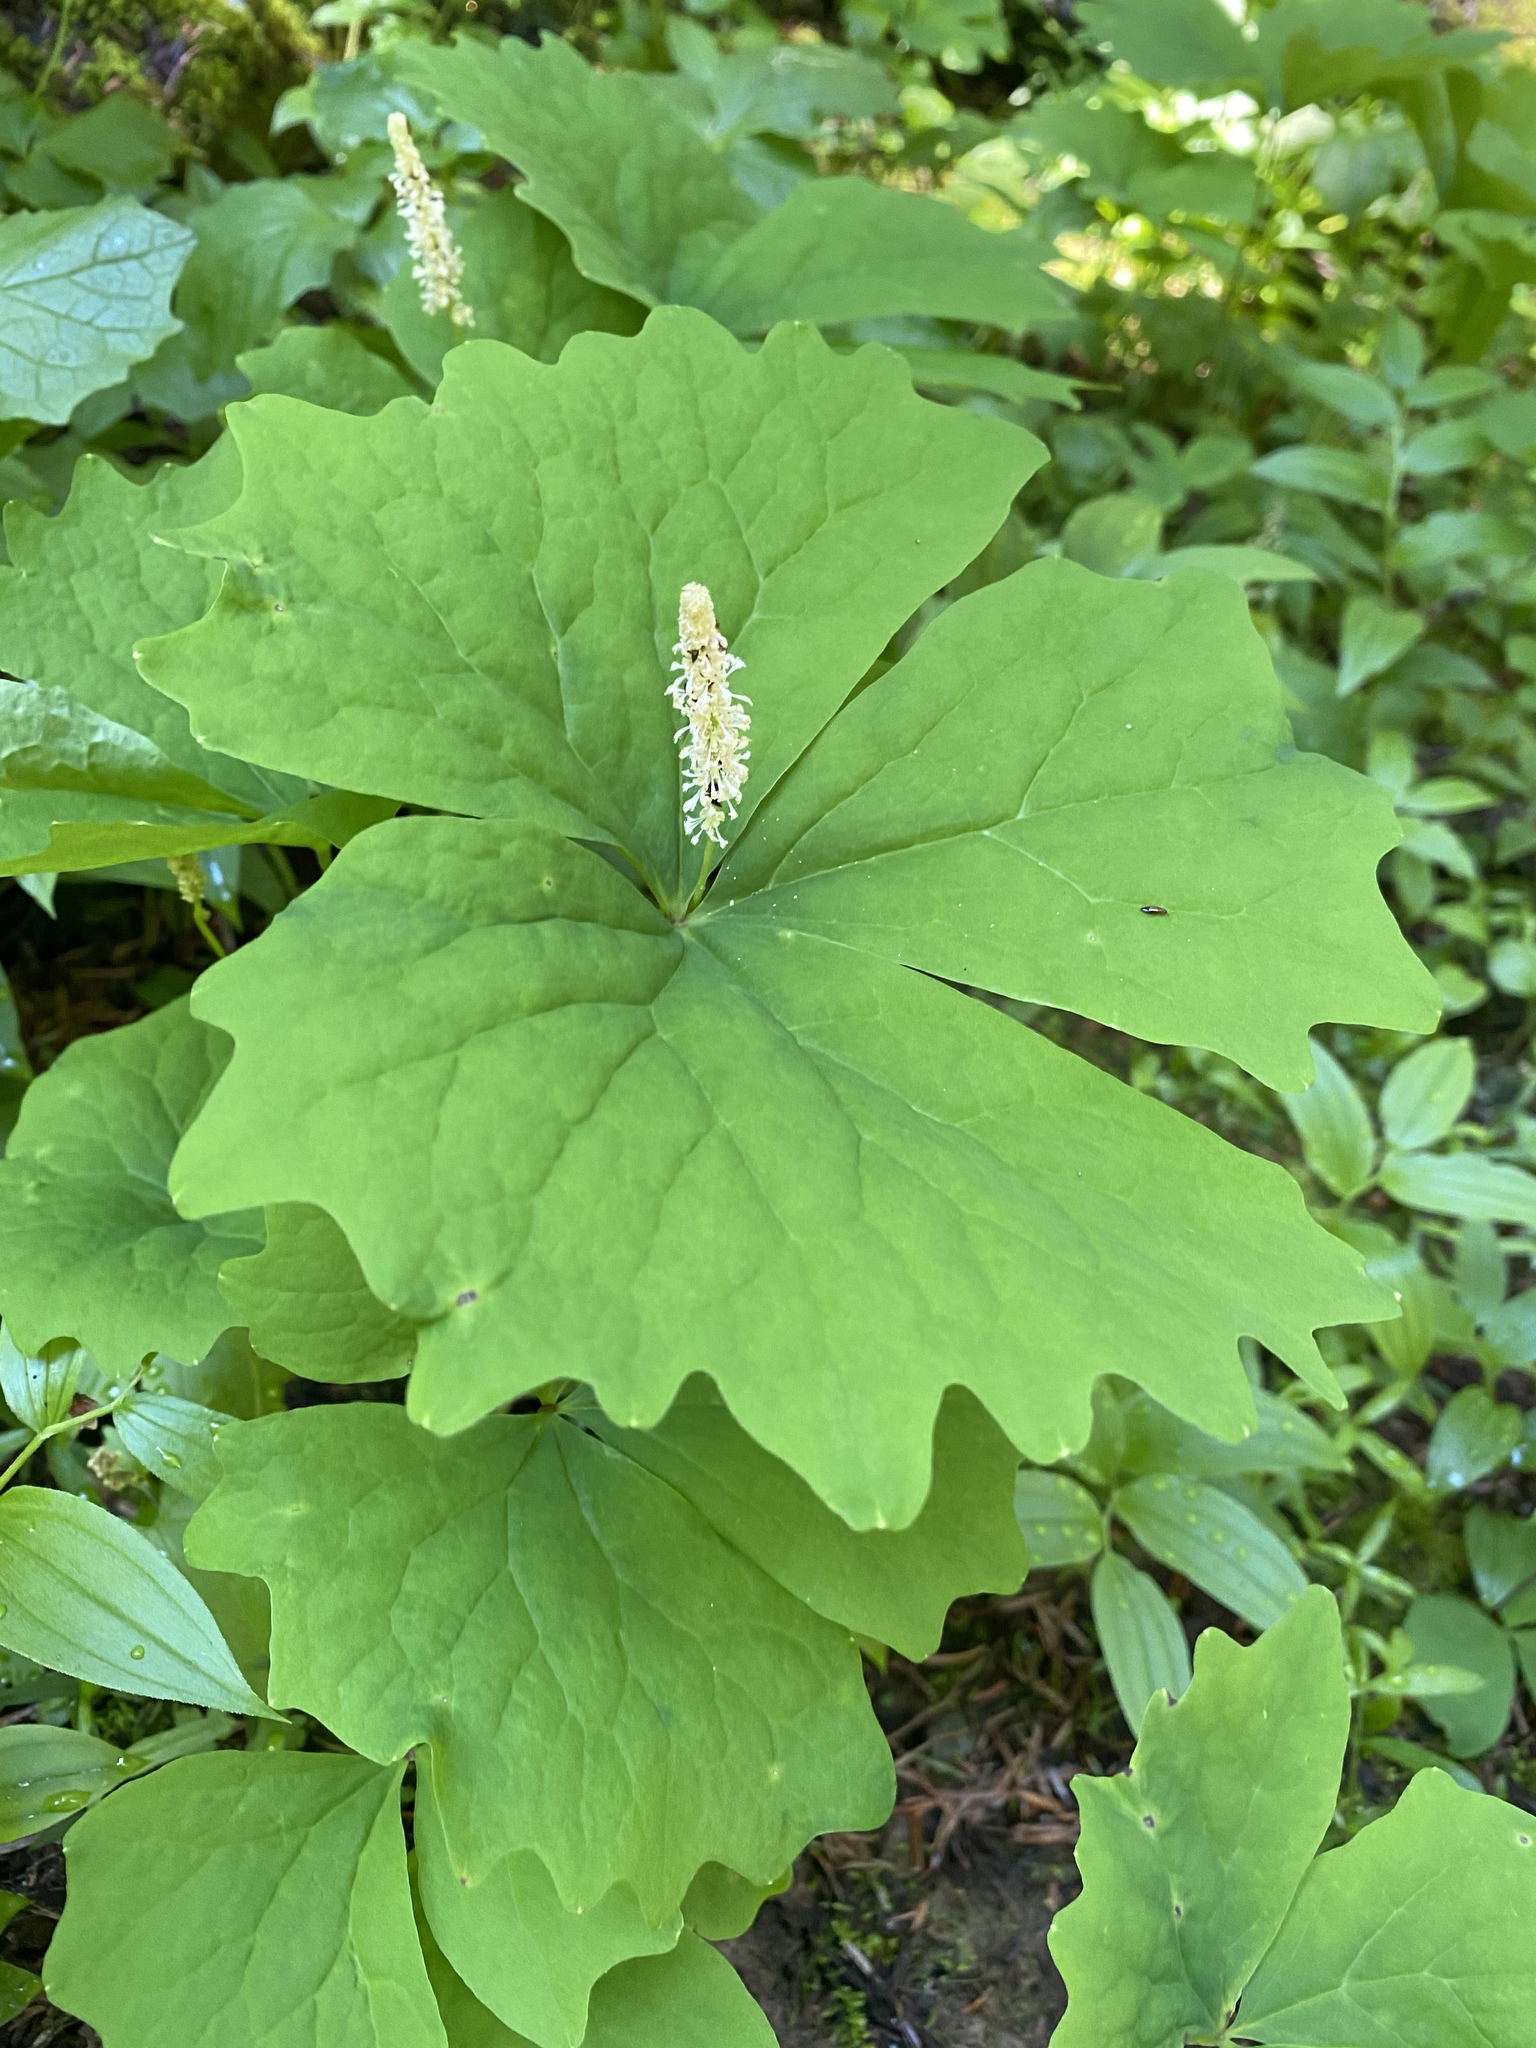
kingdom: Plantae
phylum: Tracheophyta
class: Magnoliopsida
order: Ranunculales
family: Berberidaceae
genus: Achlys
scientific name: Achlys triphylla
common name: Vanilla-leaf
